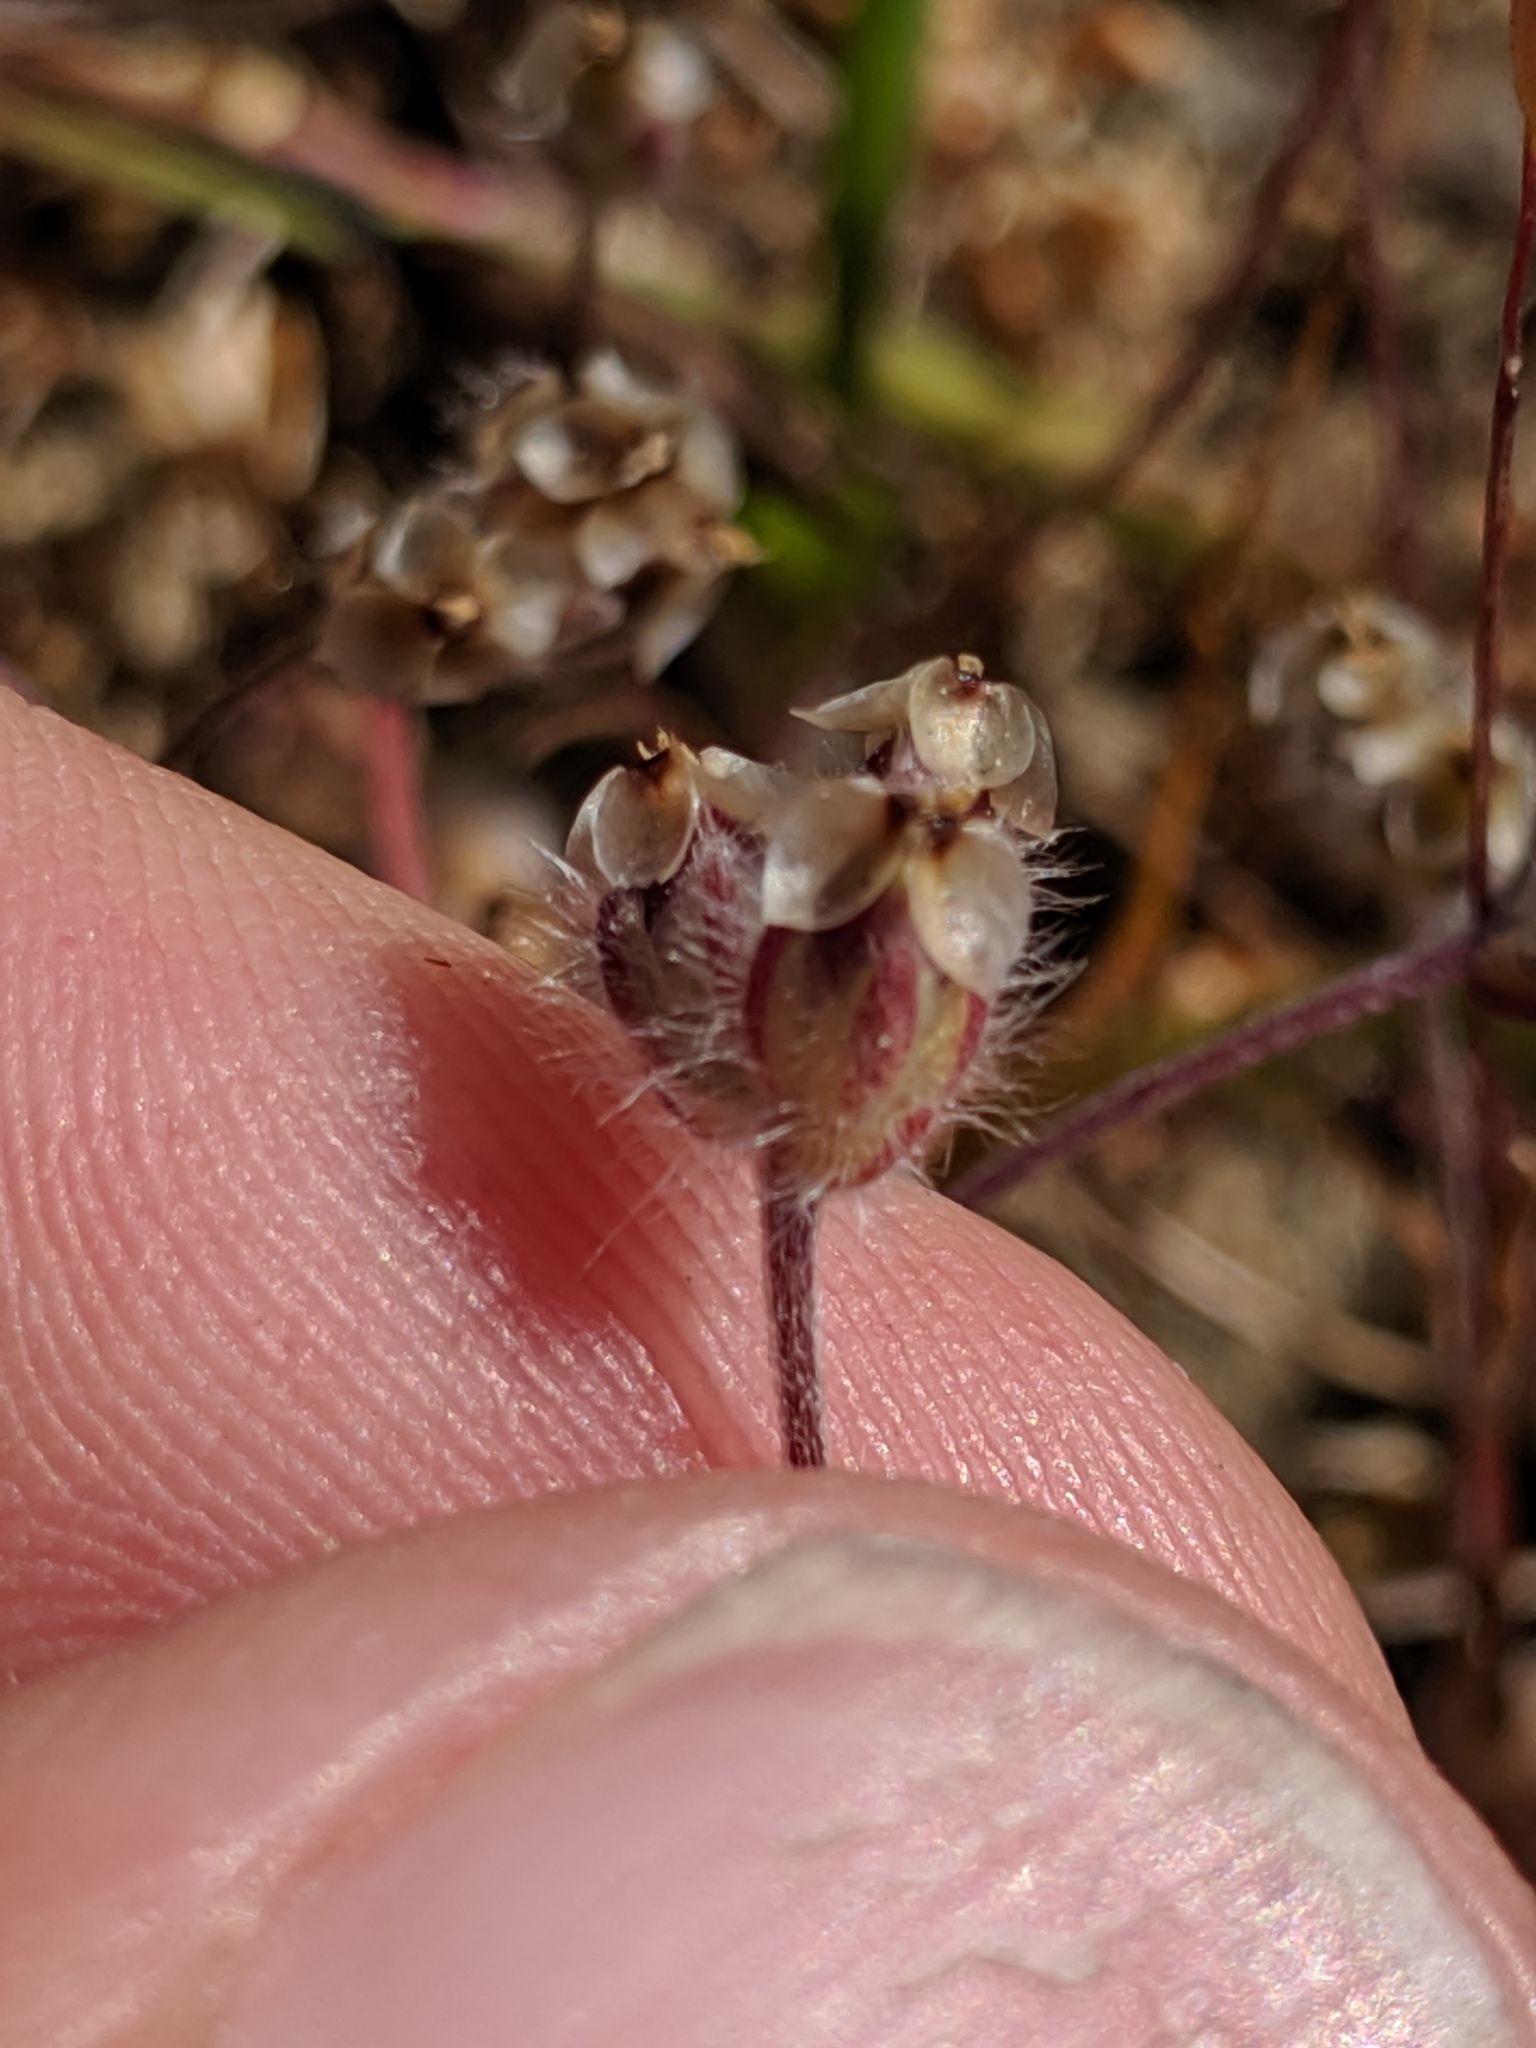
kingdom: Plantae
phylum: Tracheophyta
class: Magnoliopsida
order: Lamiales
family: Plantaginaceae
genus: Plantago
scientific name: Plantago erecta
